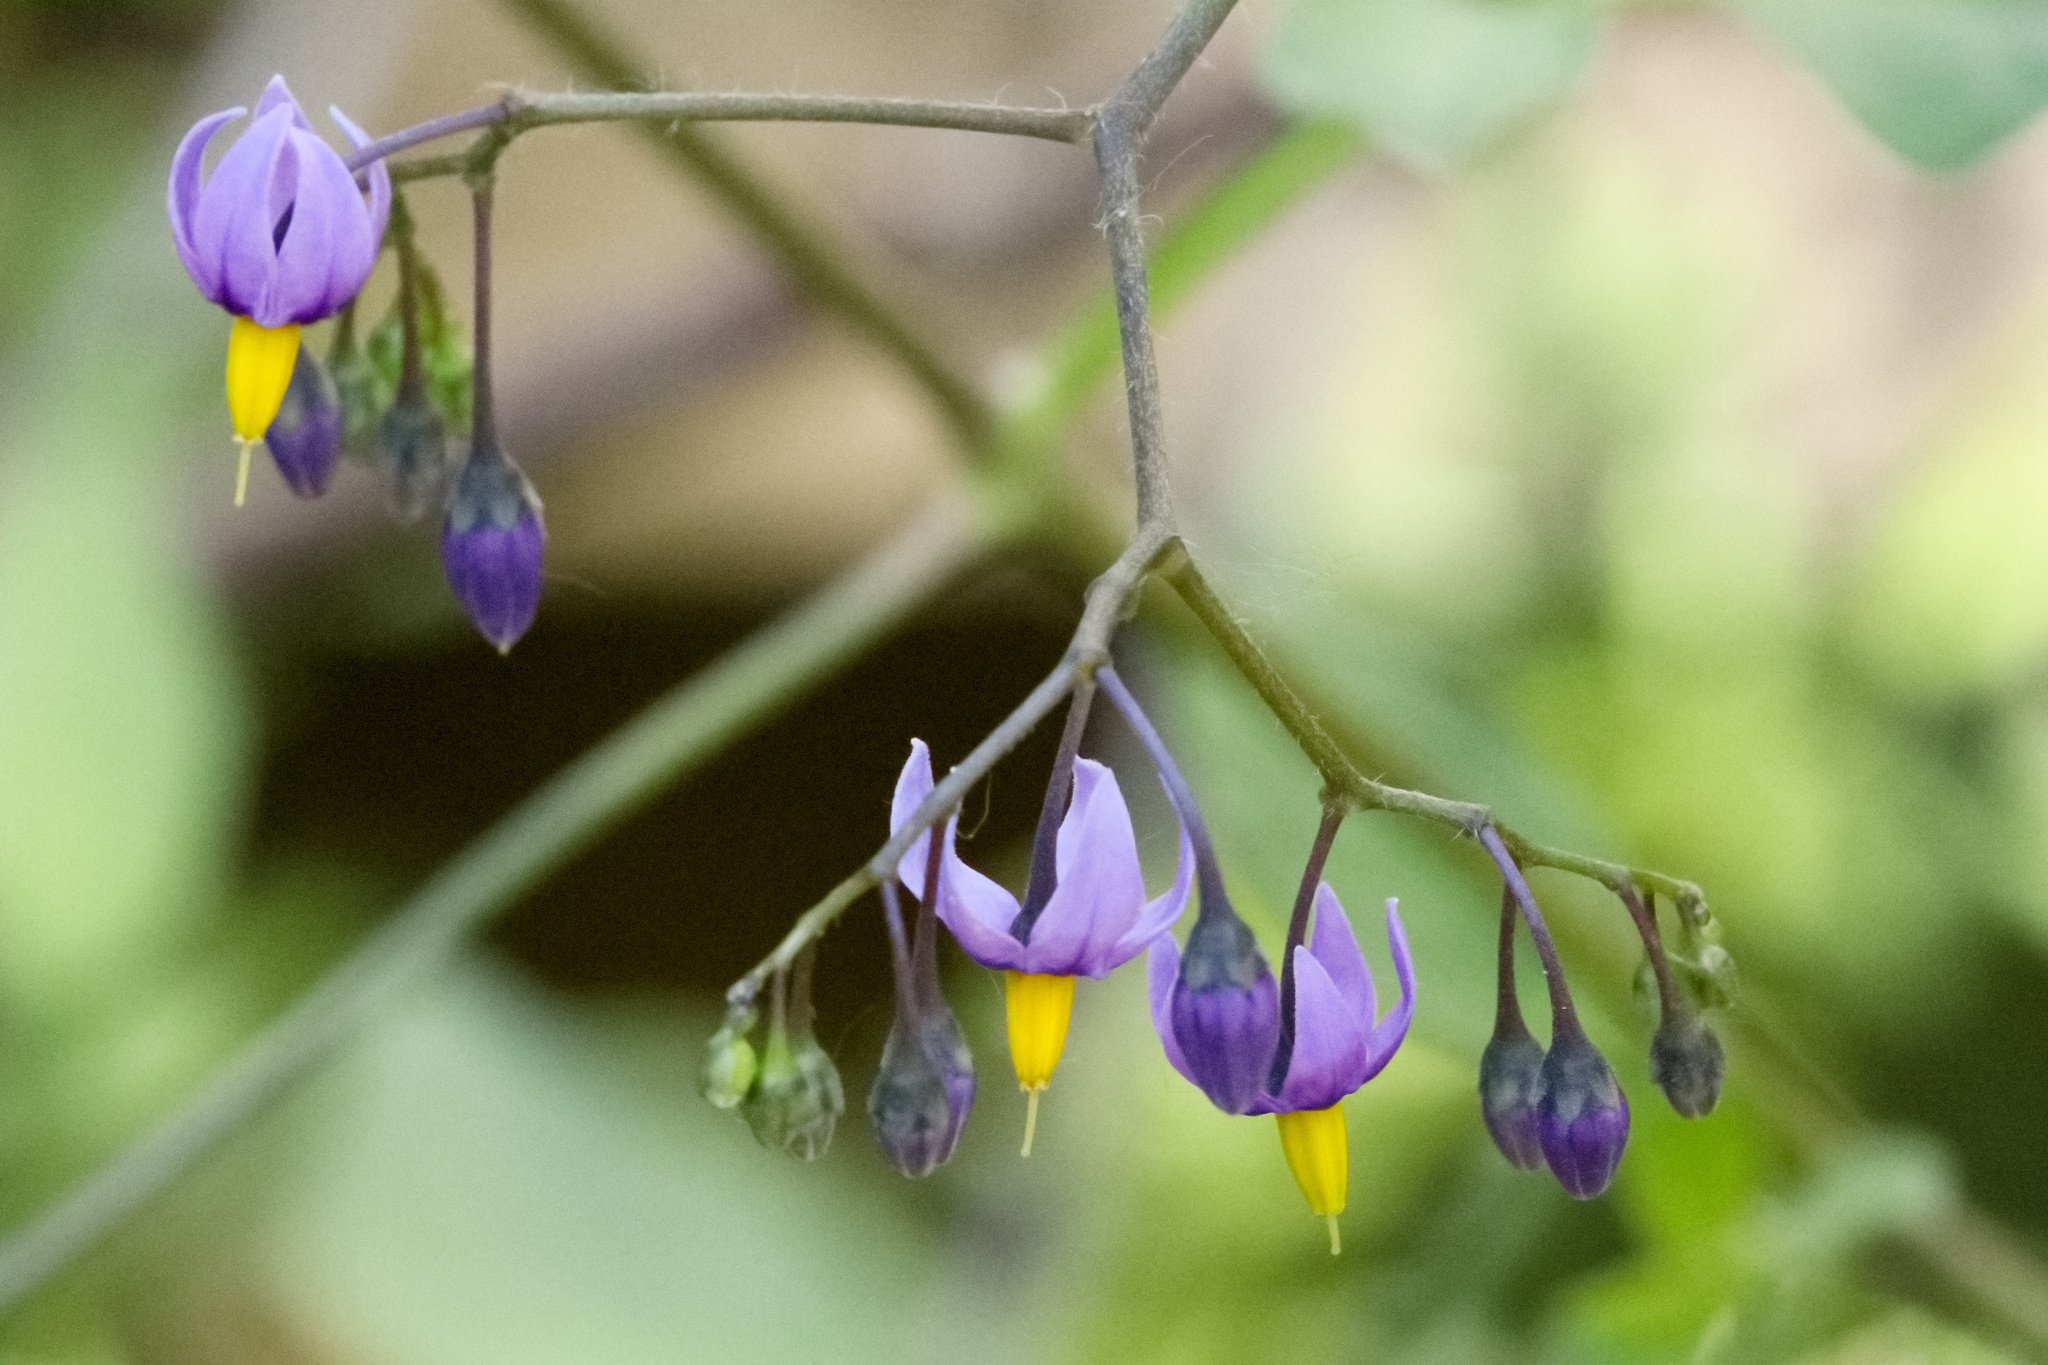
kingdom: Plantae
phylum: Tracheophyta
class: Magnoliopsida
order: Solanales
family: Solanaceae
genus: Solanum
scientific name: Solanum dulcamara
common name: Climbing nightshade
